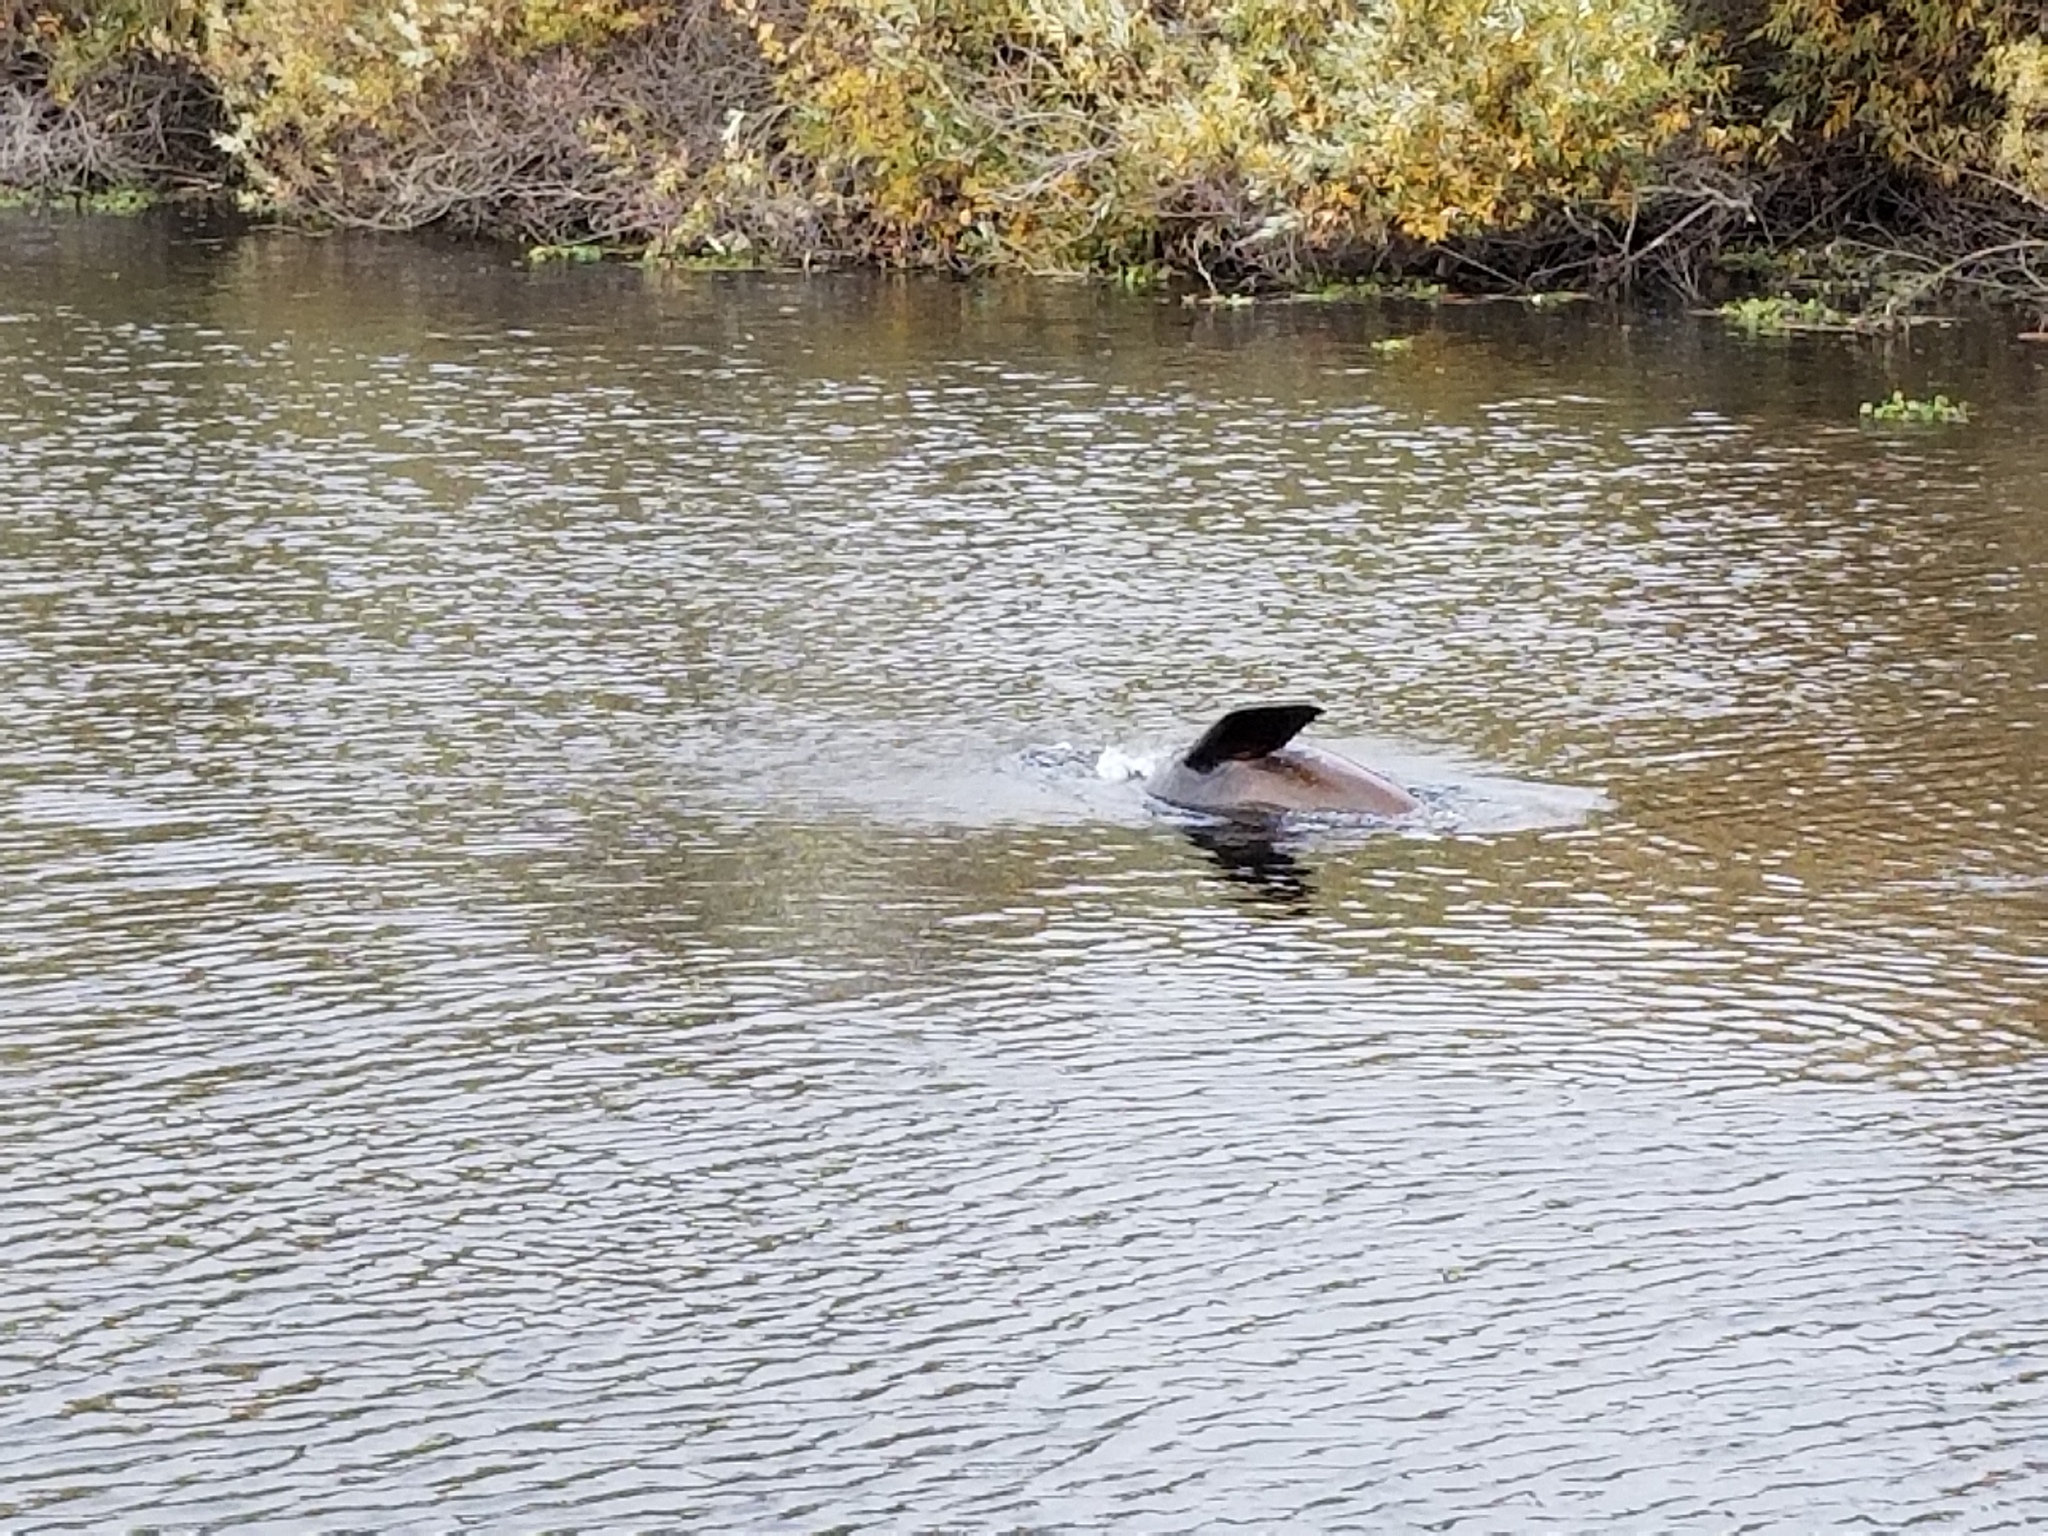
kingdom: Animalia
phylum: Chordata
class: Mammalia
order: Carnivora
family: Otariidae
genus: Zalophus
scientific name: Zalophus californianus
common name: California sea lion
